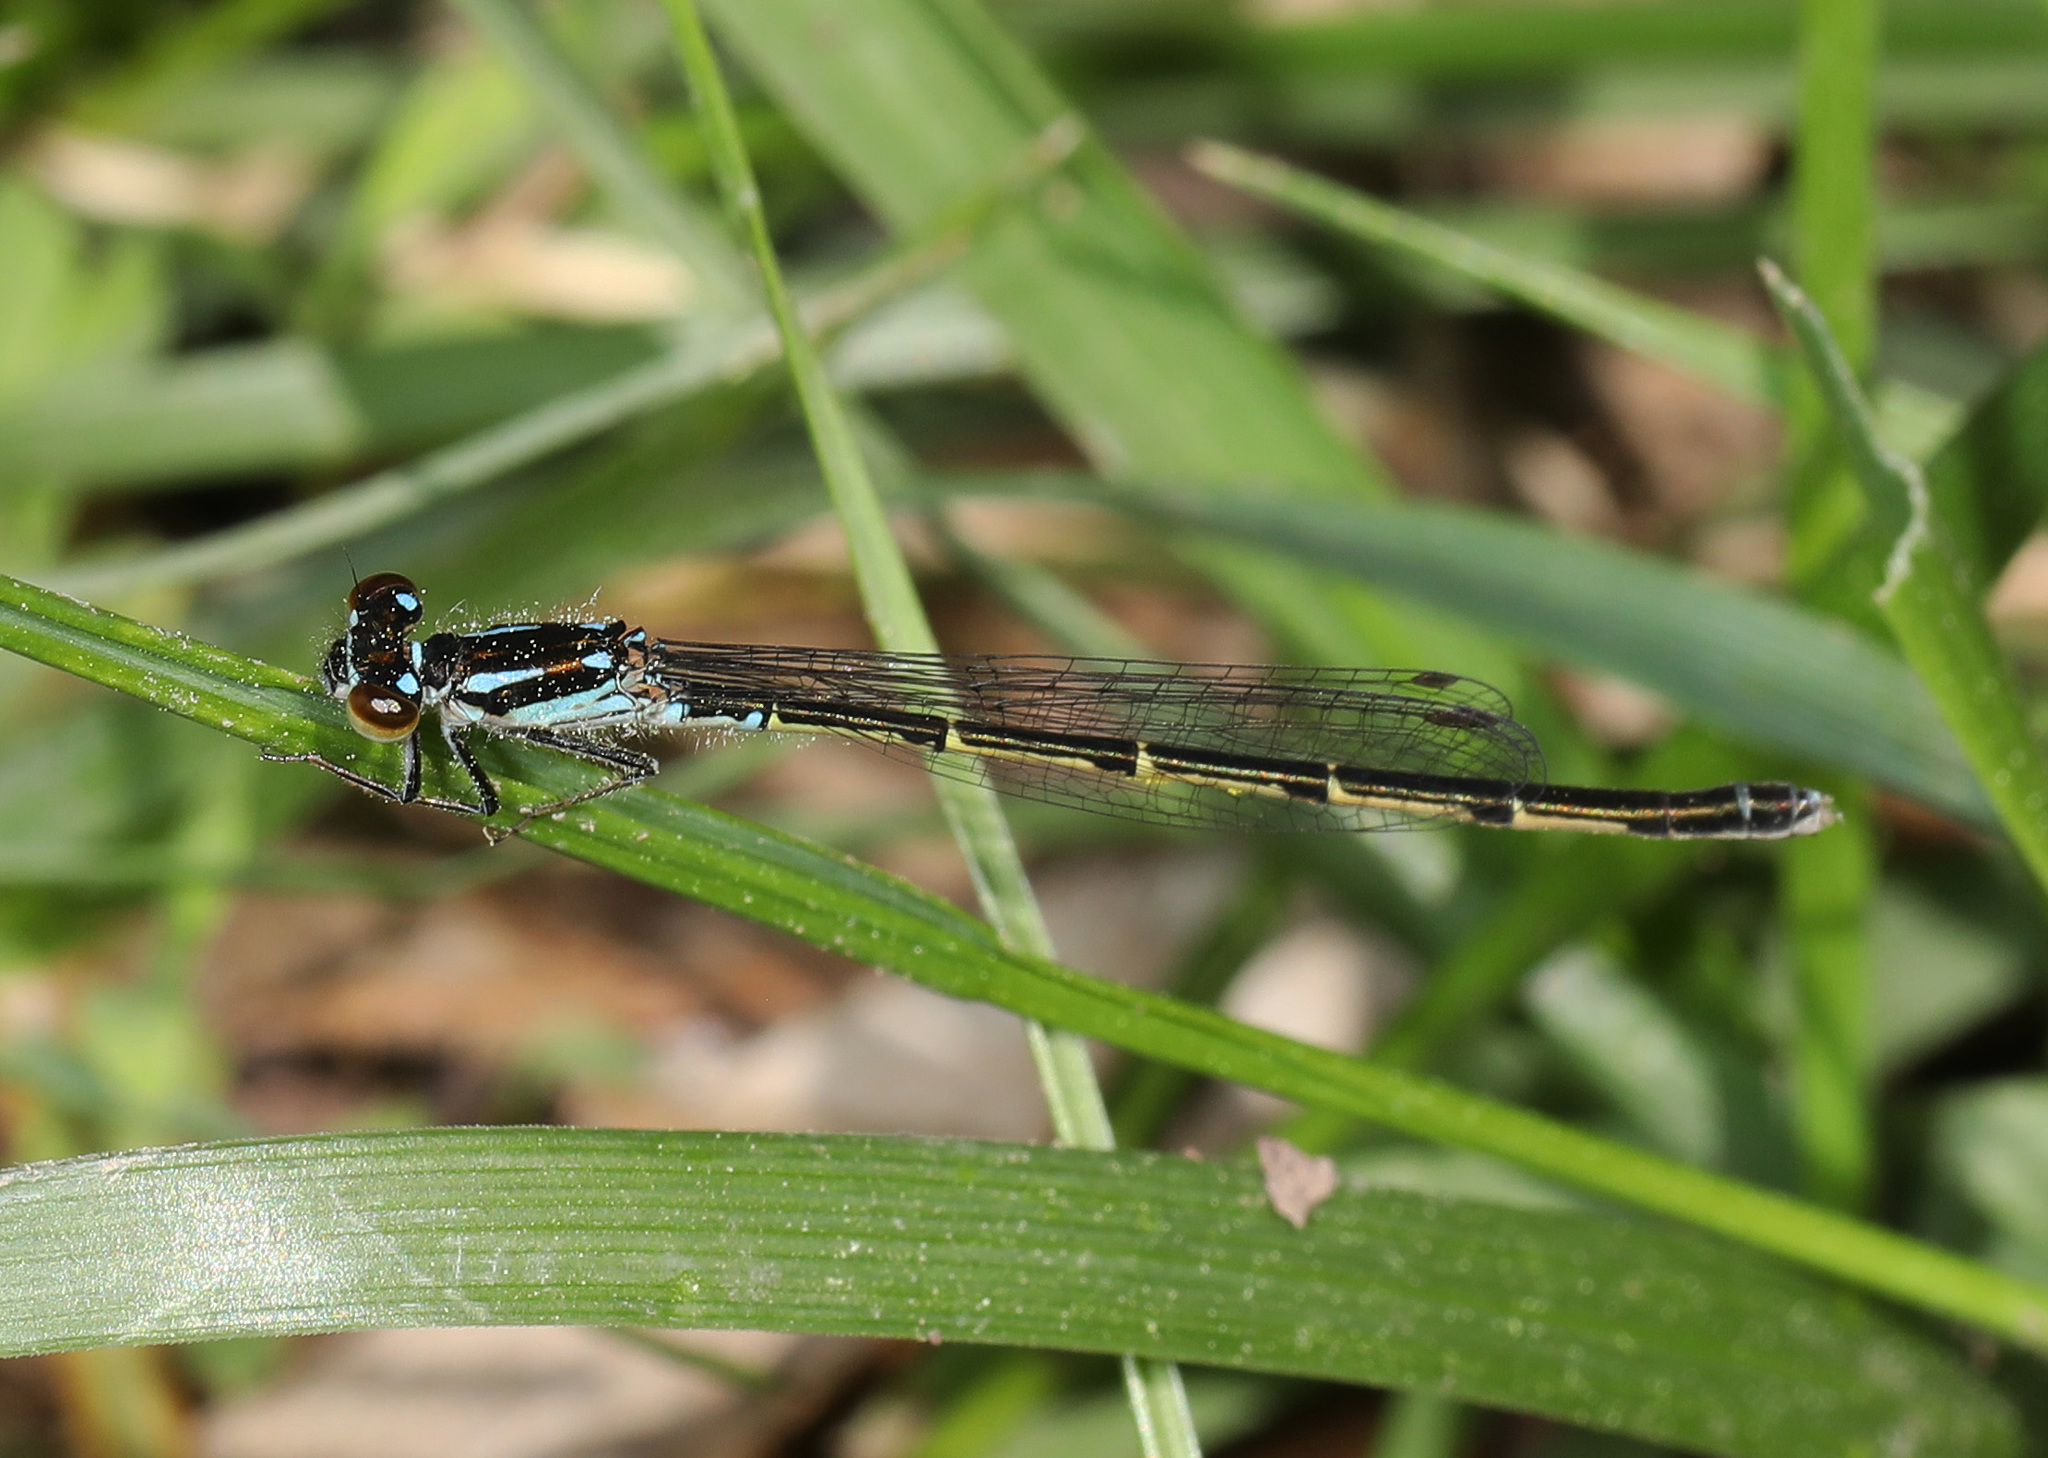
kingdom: Animalia
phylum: Arthropoda
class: Insecta
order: Odonata
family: Coenagrionidae
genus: Ischnura
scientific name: Ischnura posita
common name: Fragile forktail
